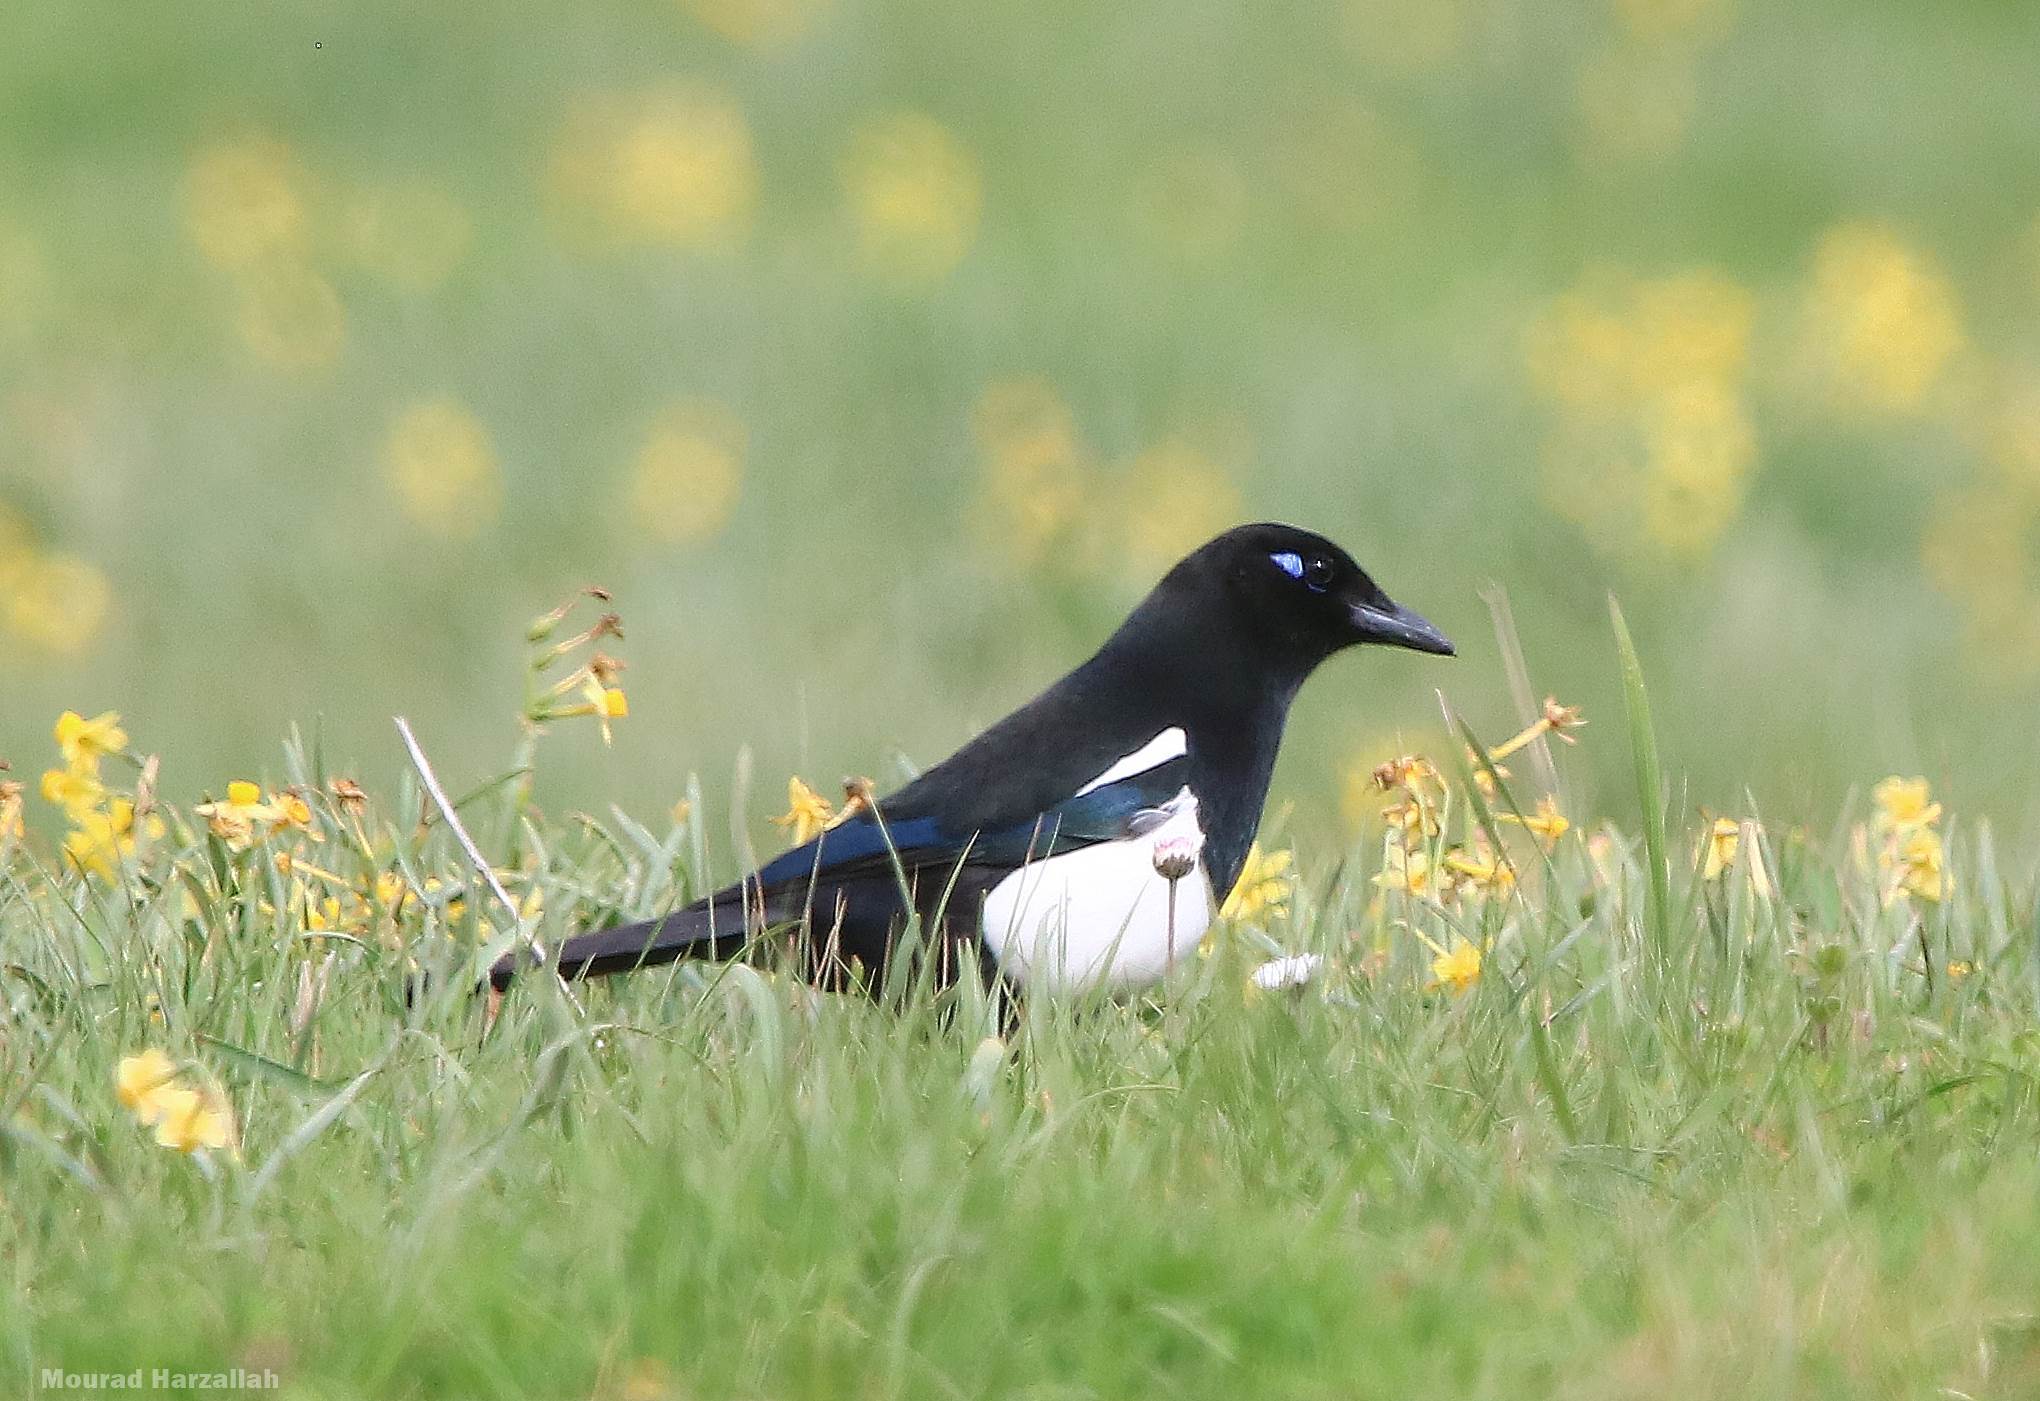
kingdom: Animalia
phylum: Chordata
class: Aves
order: Passeriformes
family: Corvidae
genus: Pica
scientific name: Pica mauritanica
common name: Maghreb magpie
